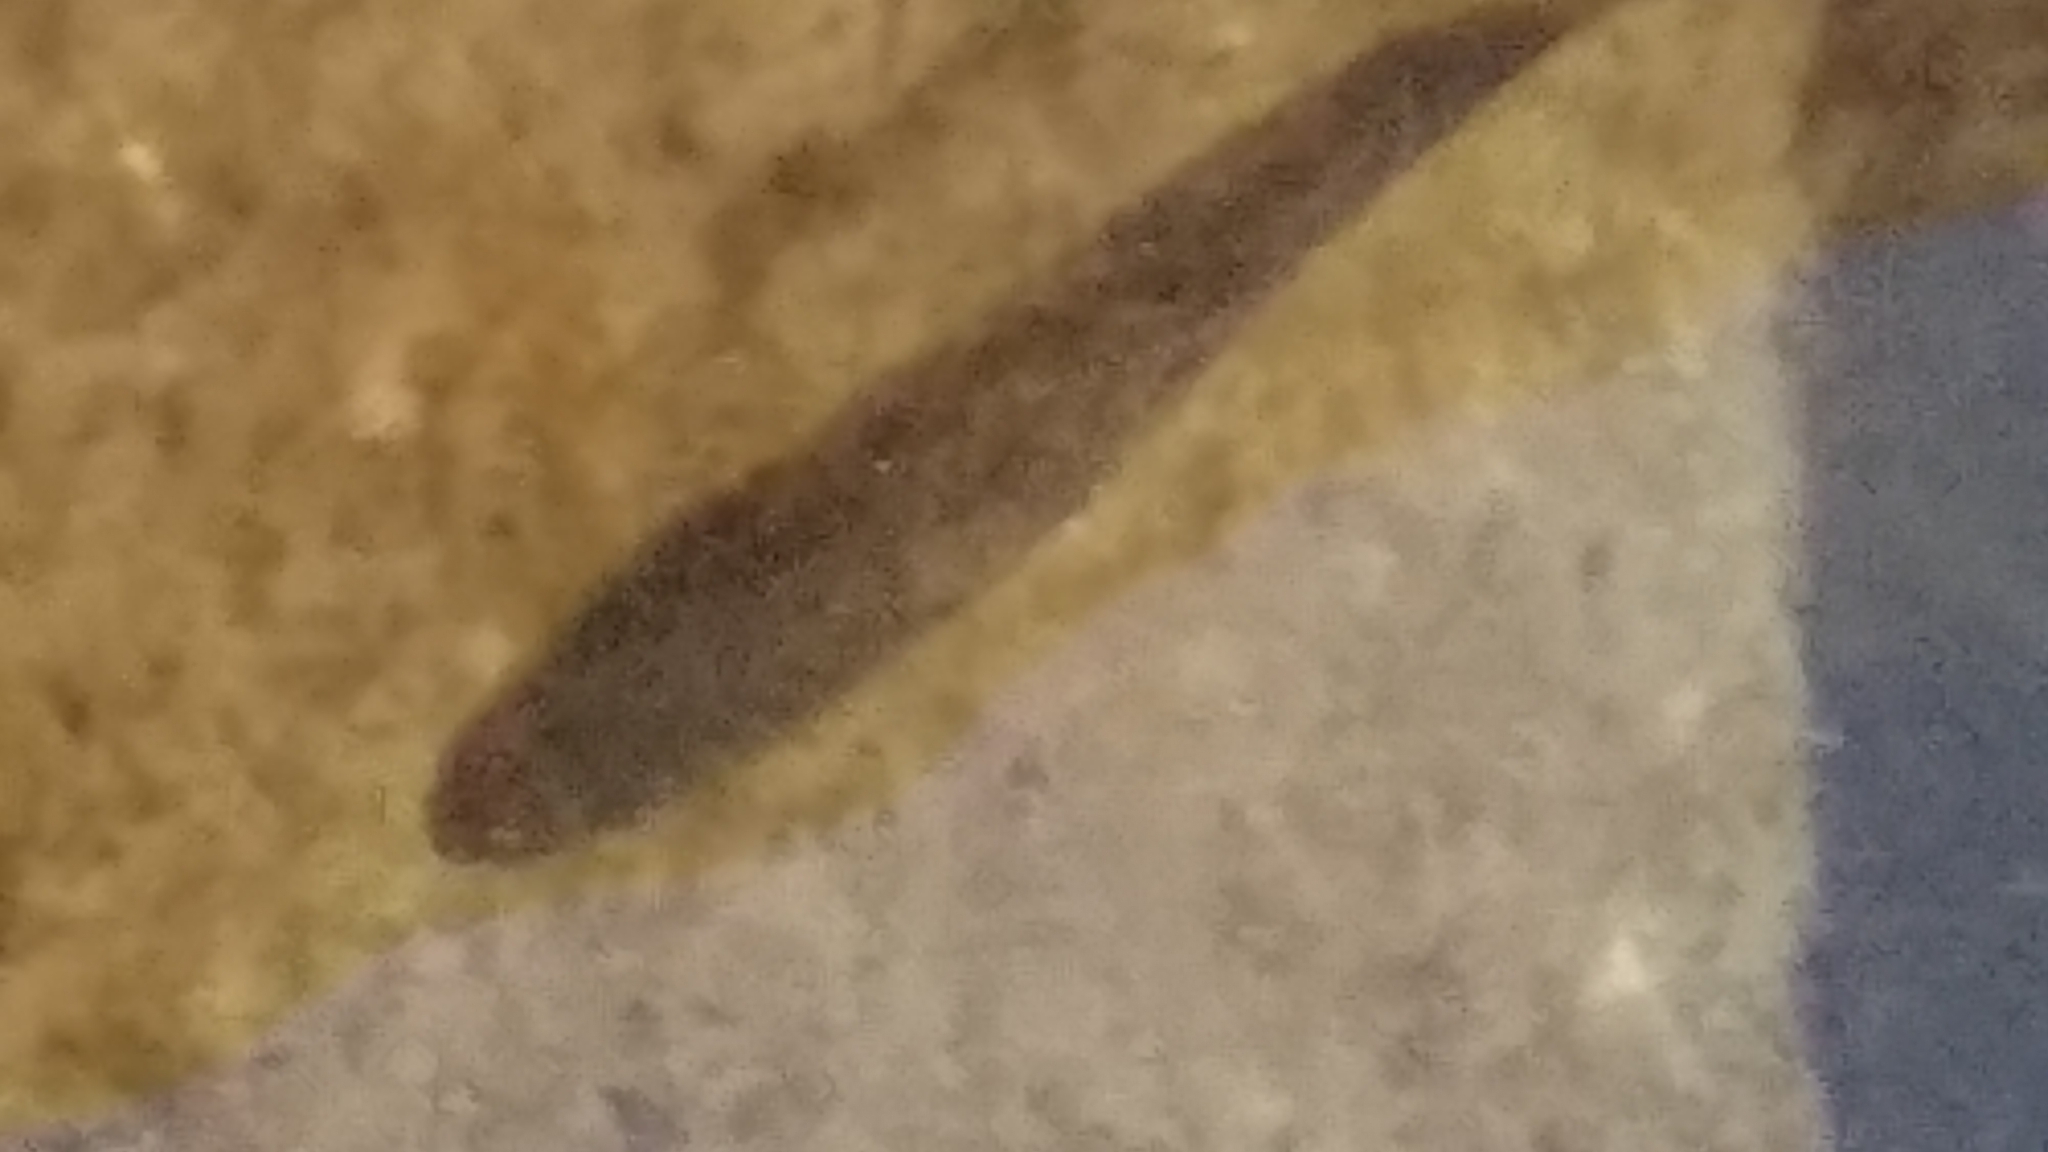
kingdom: Animalia
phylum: Chordata
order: Perciformes
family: Centrarchidae
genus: Micropterus
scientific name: Micropterus
